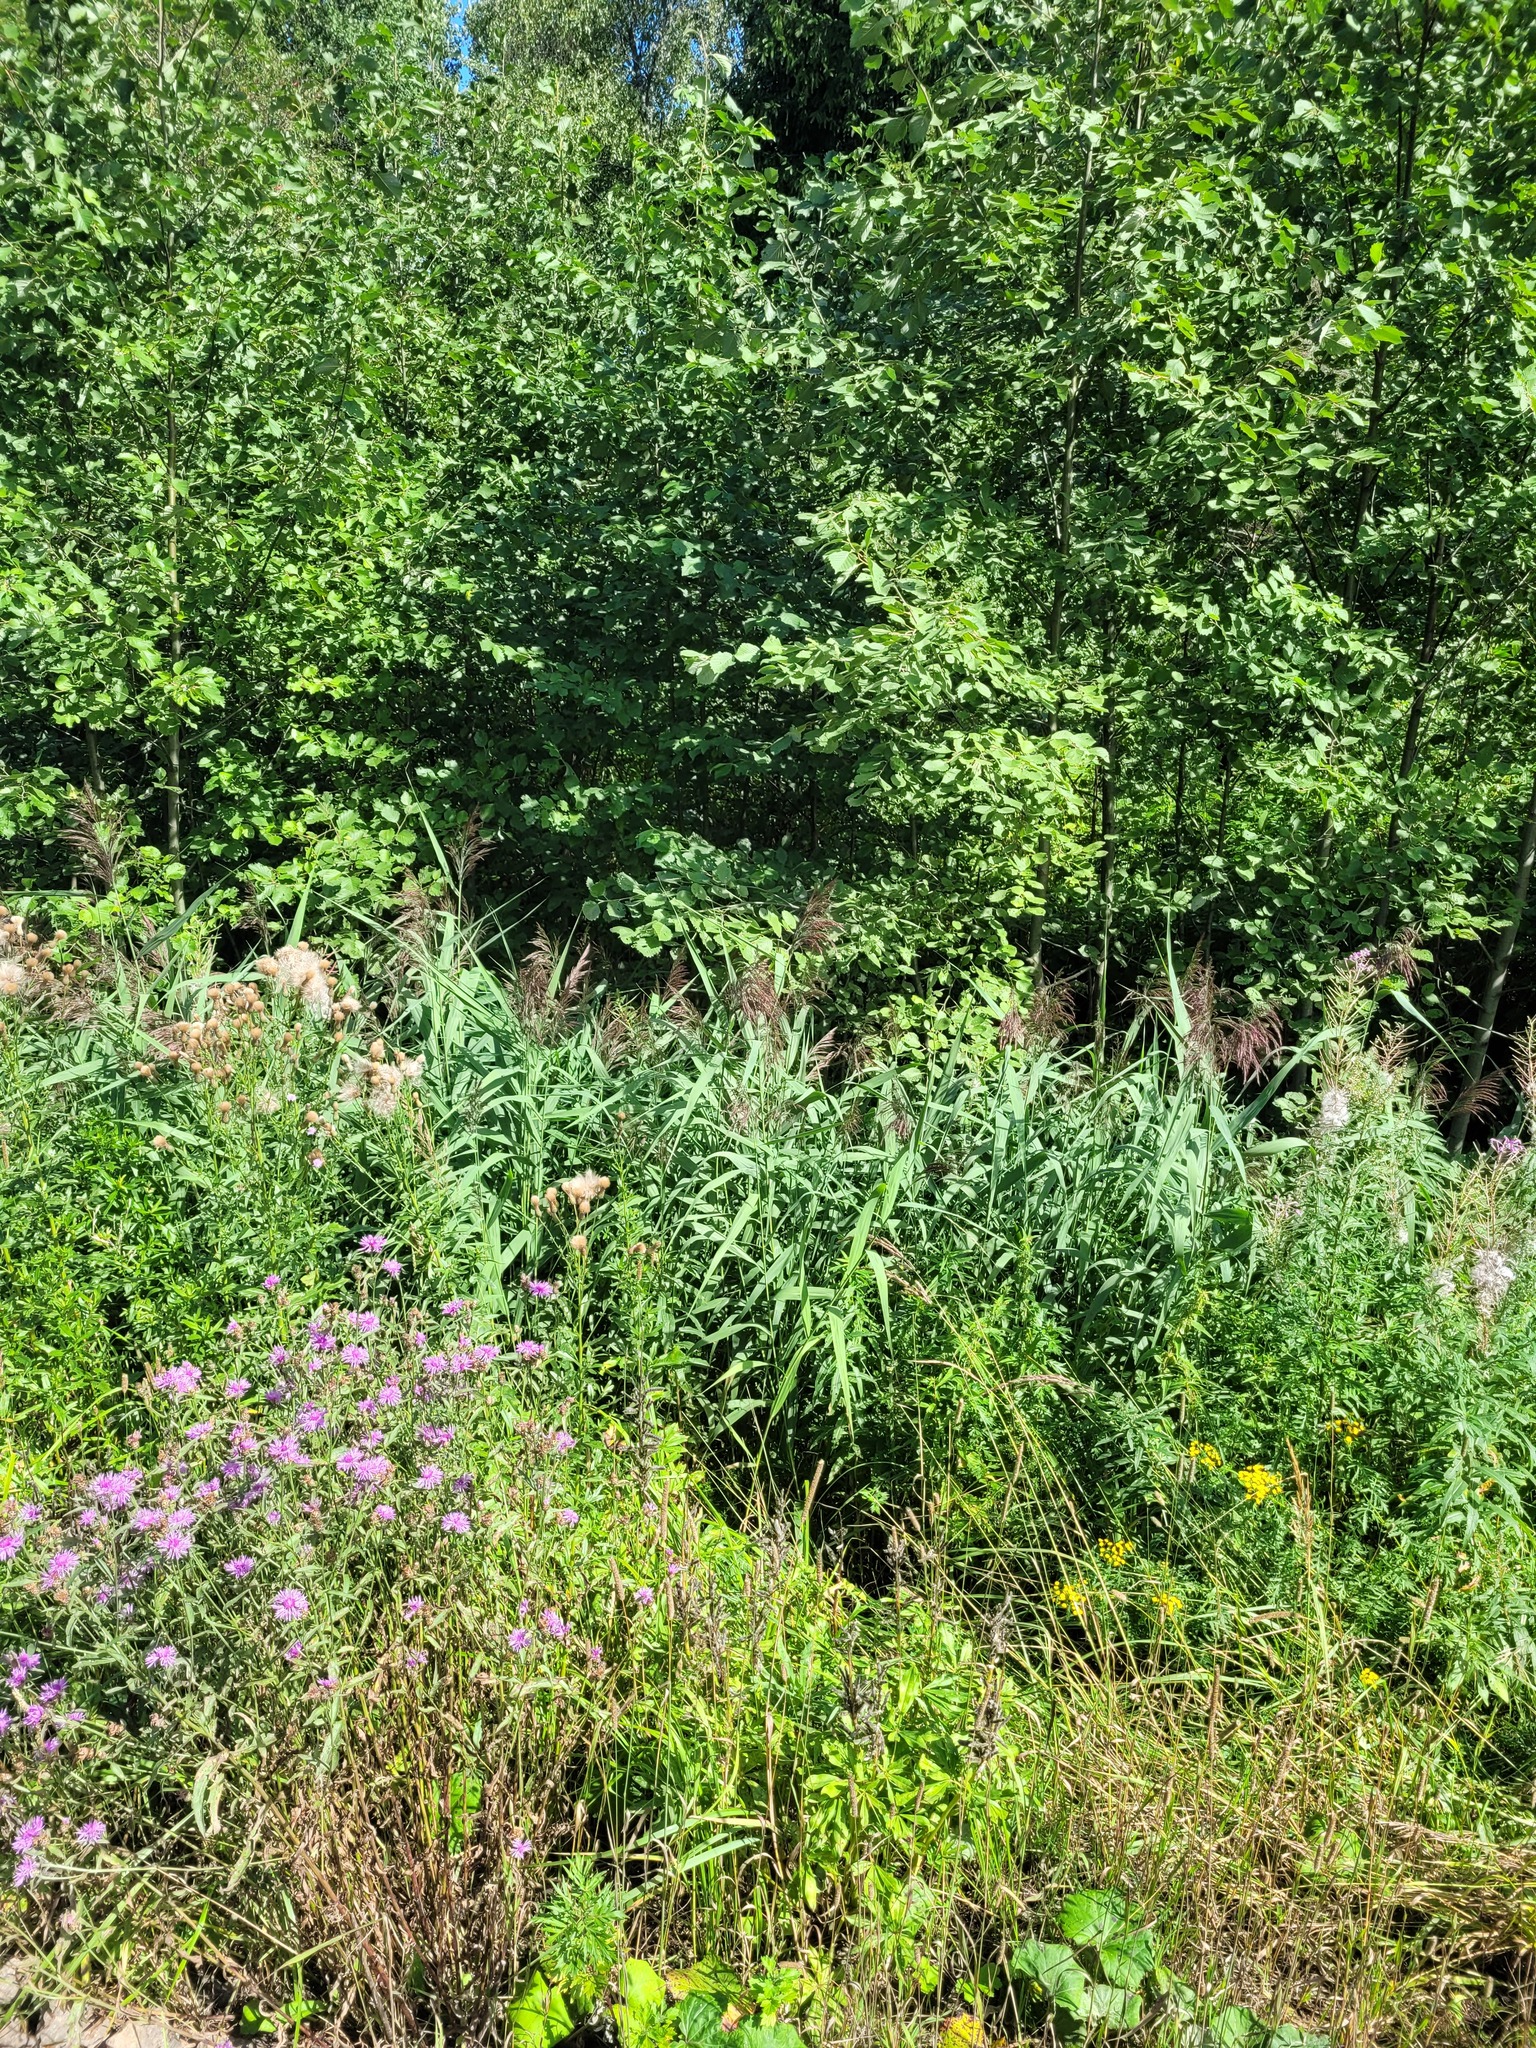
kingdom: Plantae
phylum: Tracheophyta
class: Liliopsida
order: Poales
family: Poaceae
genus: Phragmites
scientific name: Phragmites australis
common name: Common reed
